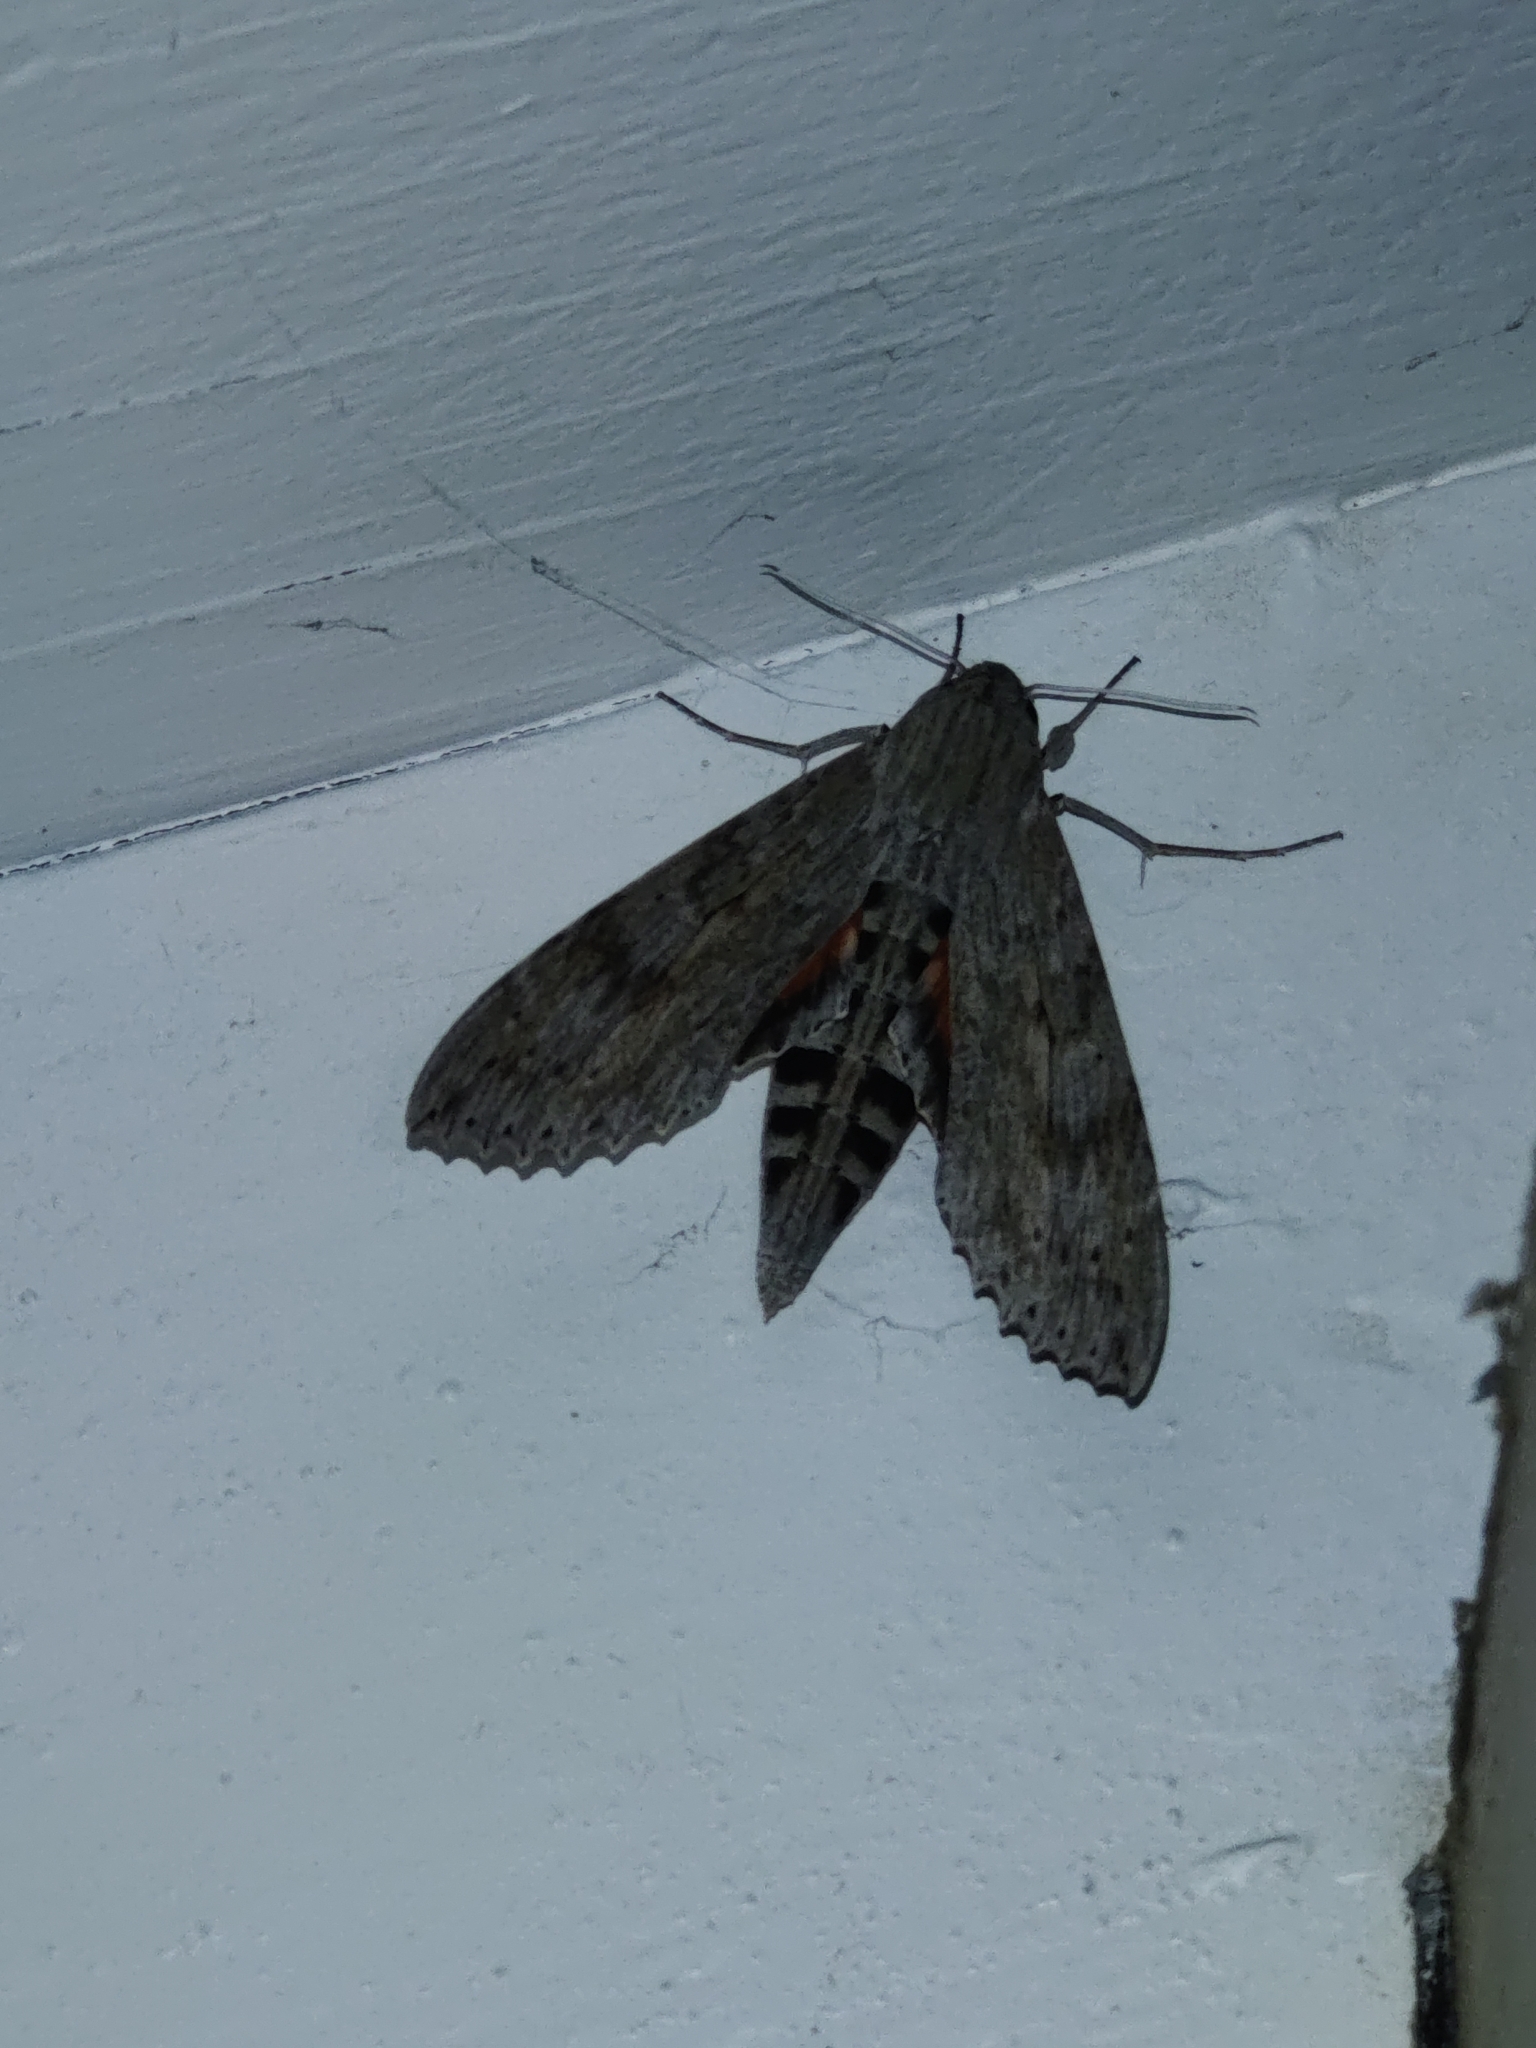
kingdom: Animalia
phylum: Arthropoda
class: Insecta
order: Lepidoptera
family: Sphingidae
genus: Erinnyis
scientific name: Erinnyis ello
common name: Ello sphinx
